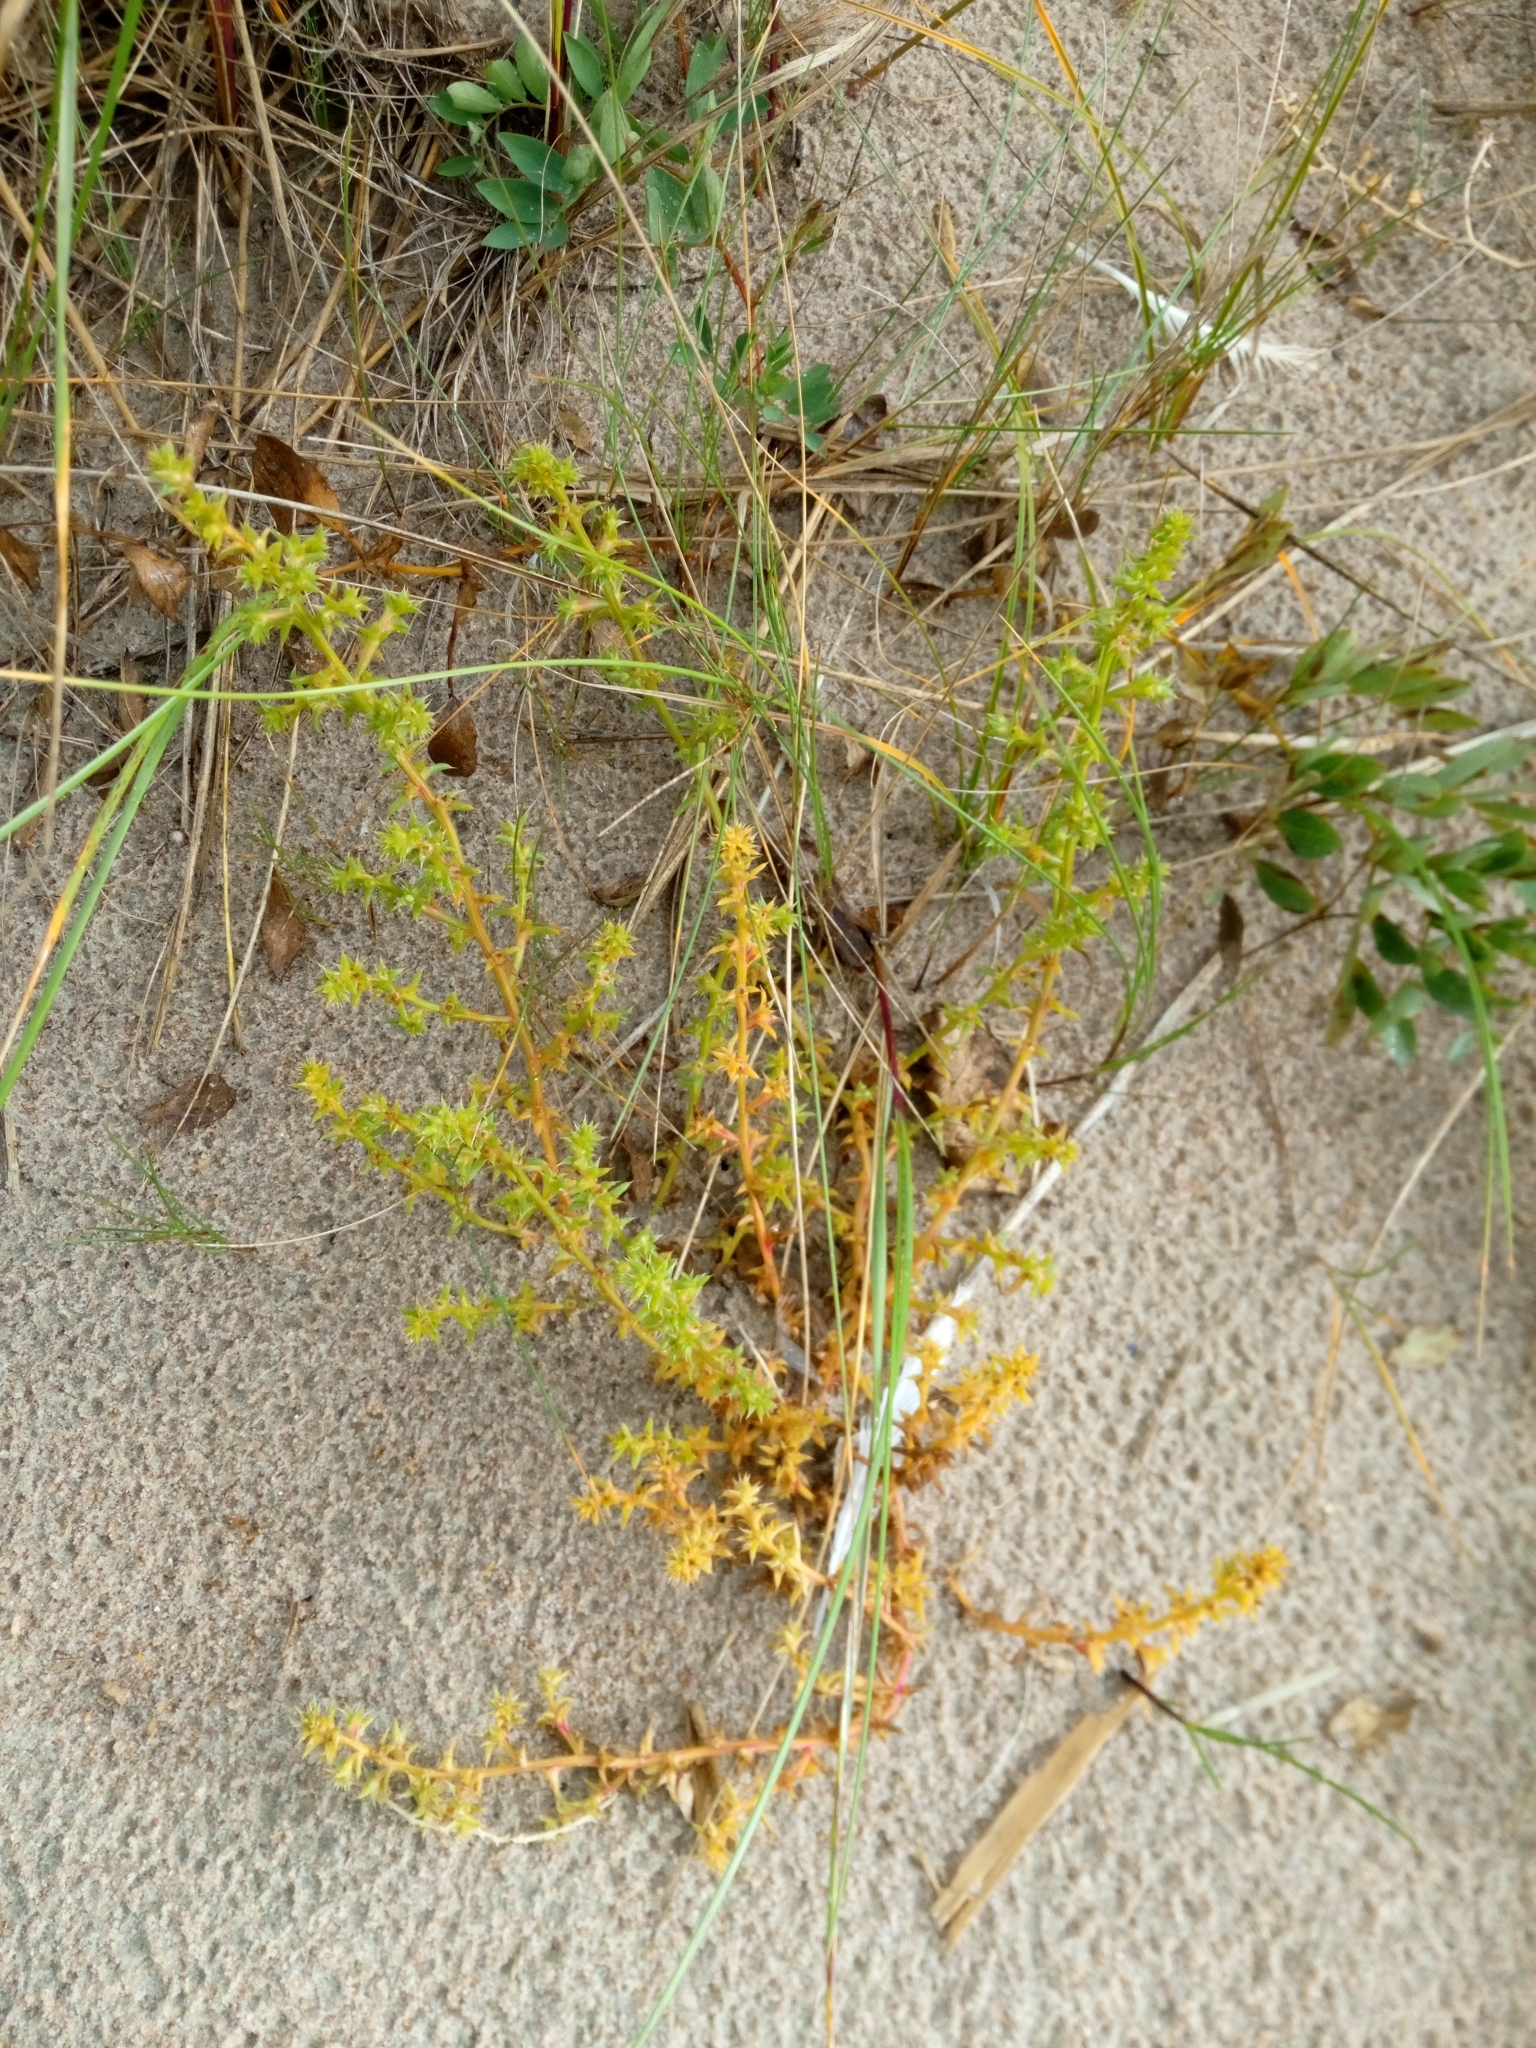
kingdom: Plantae
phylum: Tracheophyta
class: Magnoliopsida
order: Caryophyllales
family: Amaranthaceae
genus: Salsola
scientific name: Salsola kali
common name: Saltwort
